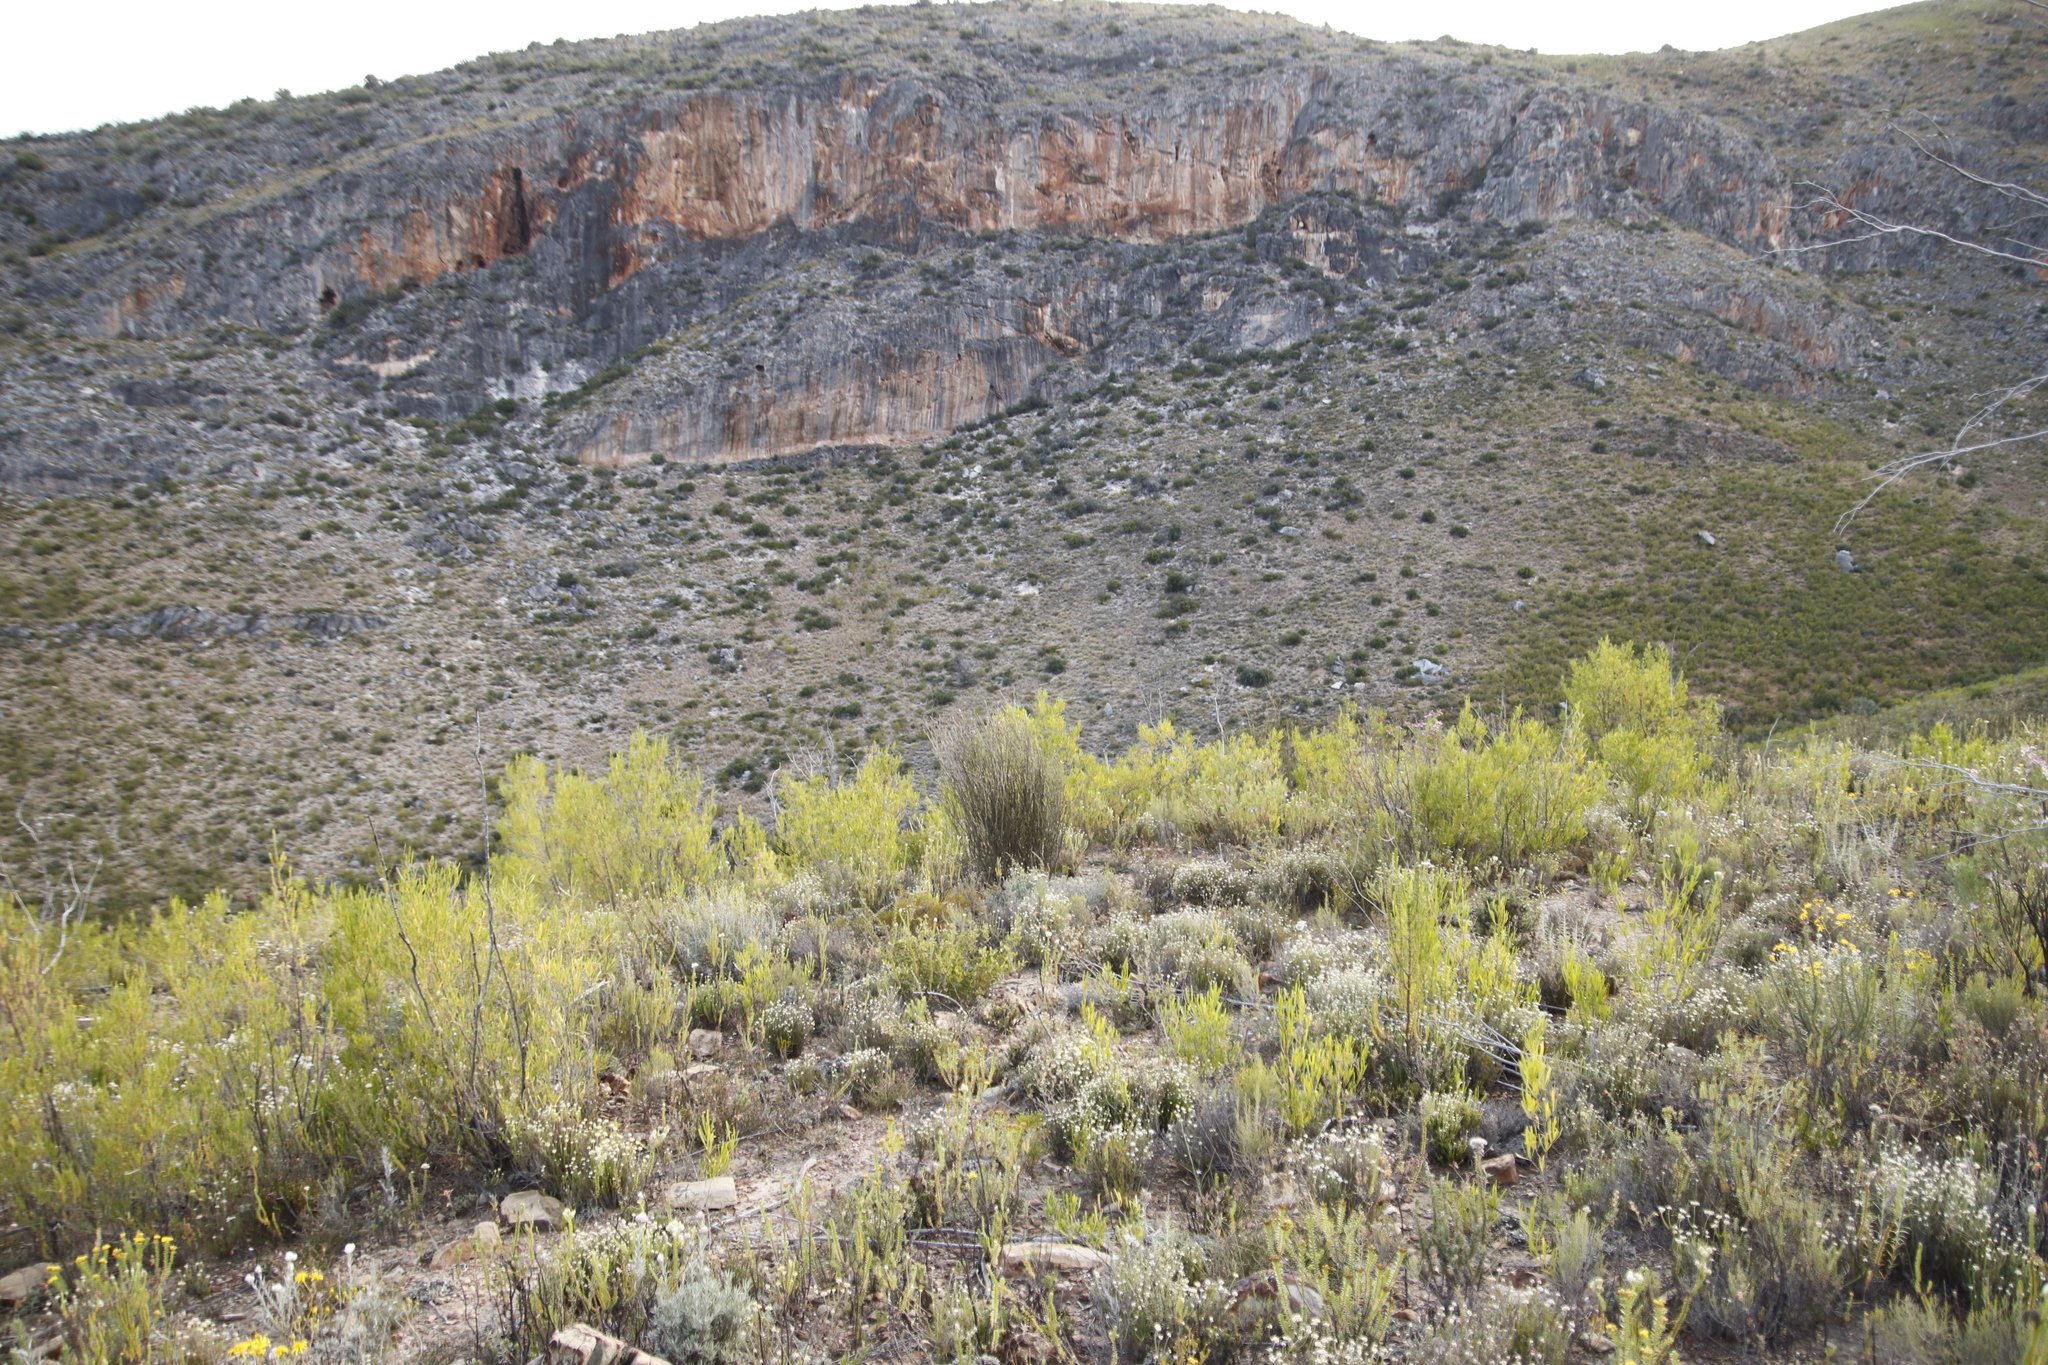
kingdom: Plantae
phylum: Tracheophyta
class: Magnoliopsida
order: Sapindales
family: Sapindaceae
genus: Dodonaea
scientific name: Dodonaea viscosa
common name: Hopbush
